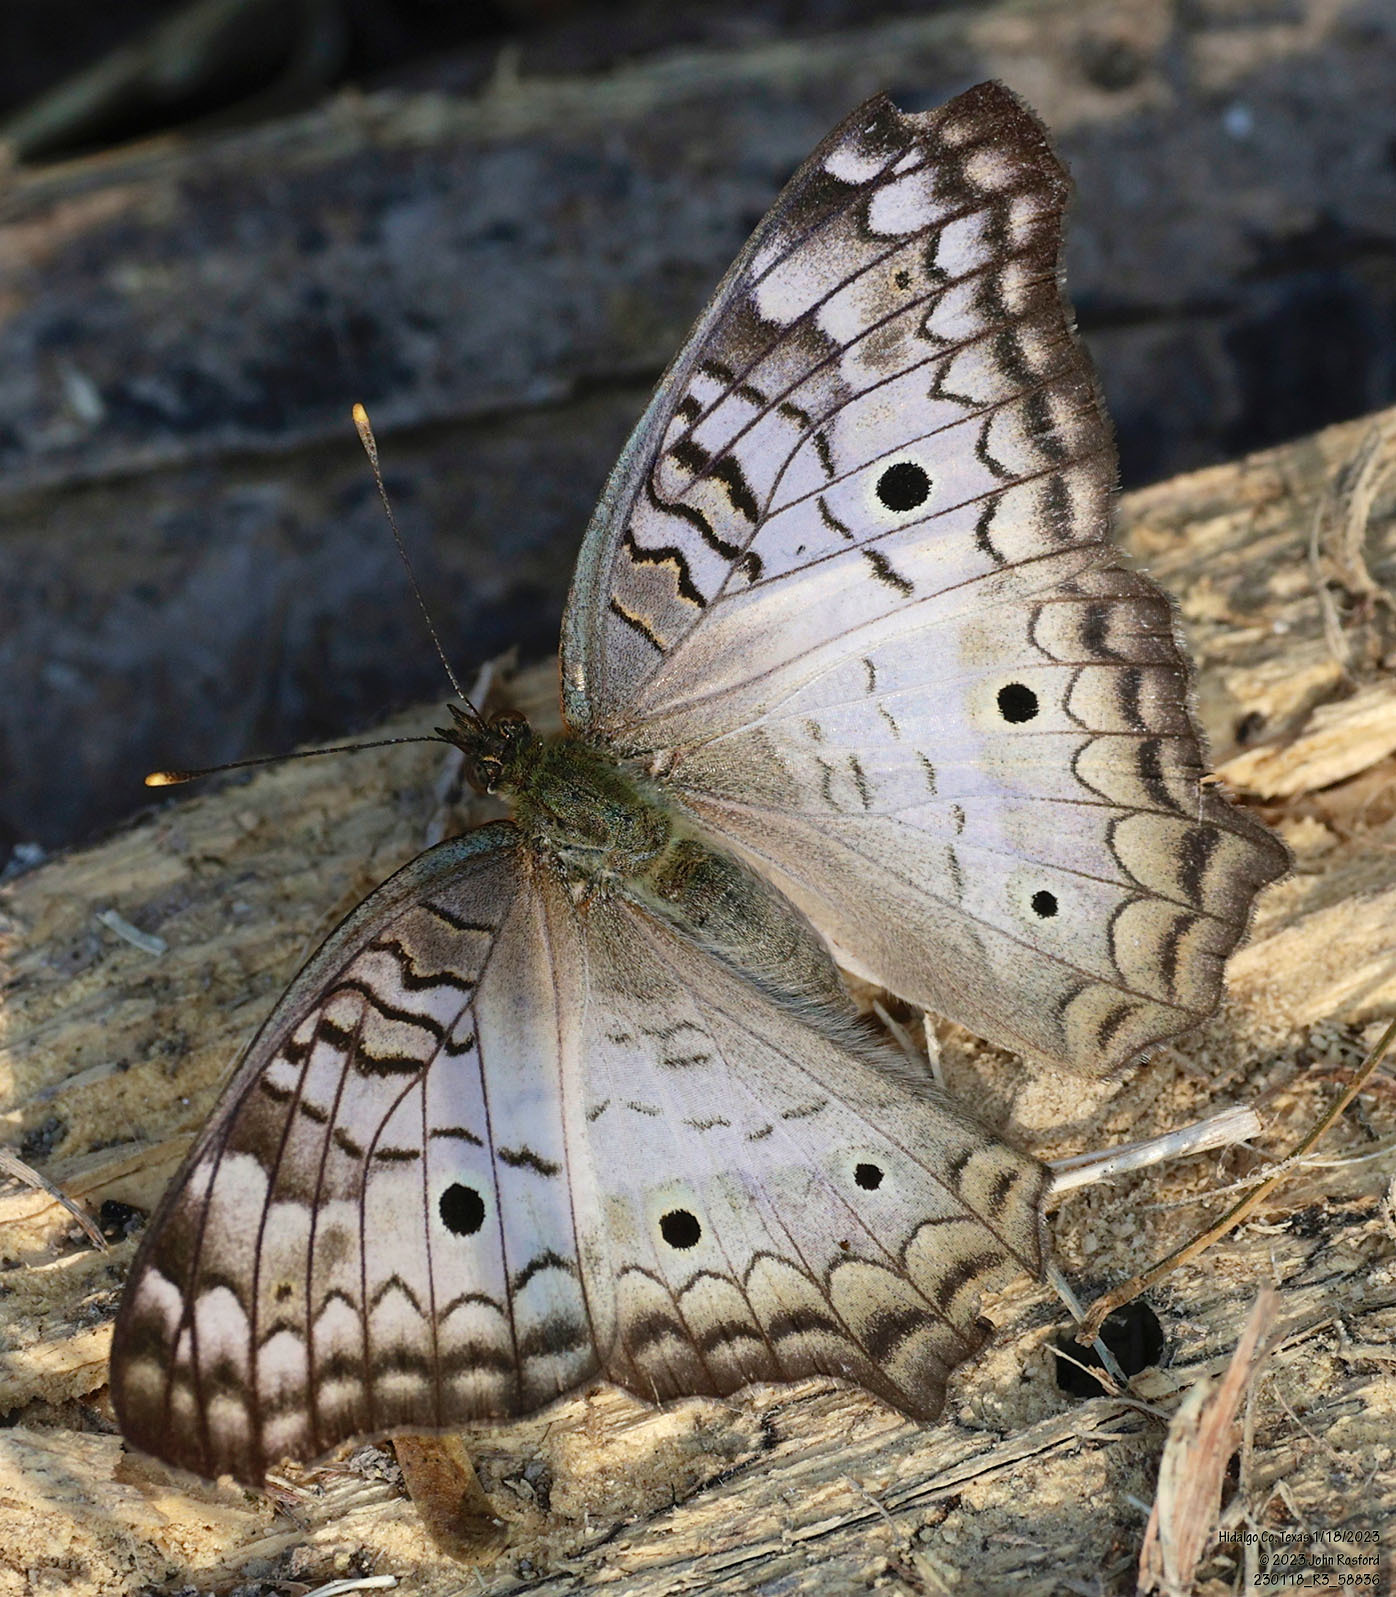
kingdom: Animalia
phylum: Arthropoda
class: Insecta
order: Lepidoptera
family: Nymphalidae
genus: Anartia
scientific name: Anartia jatrophae
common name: White peacock
